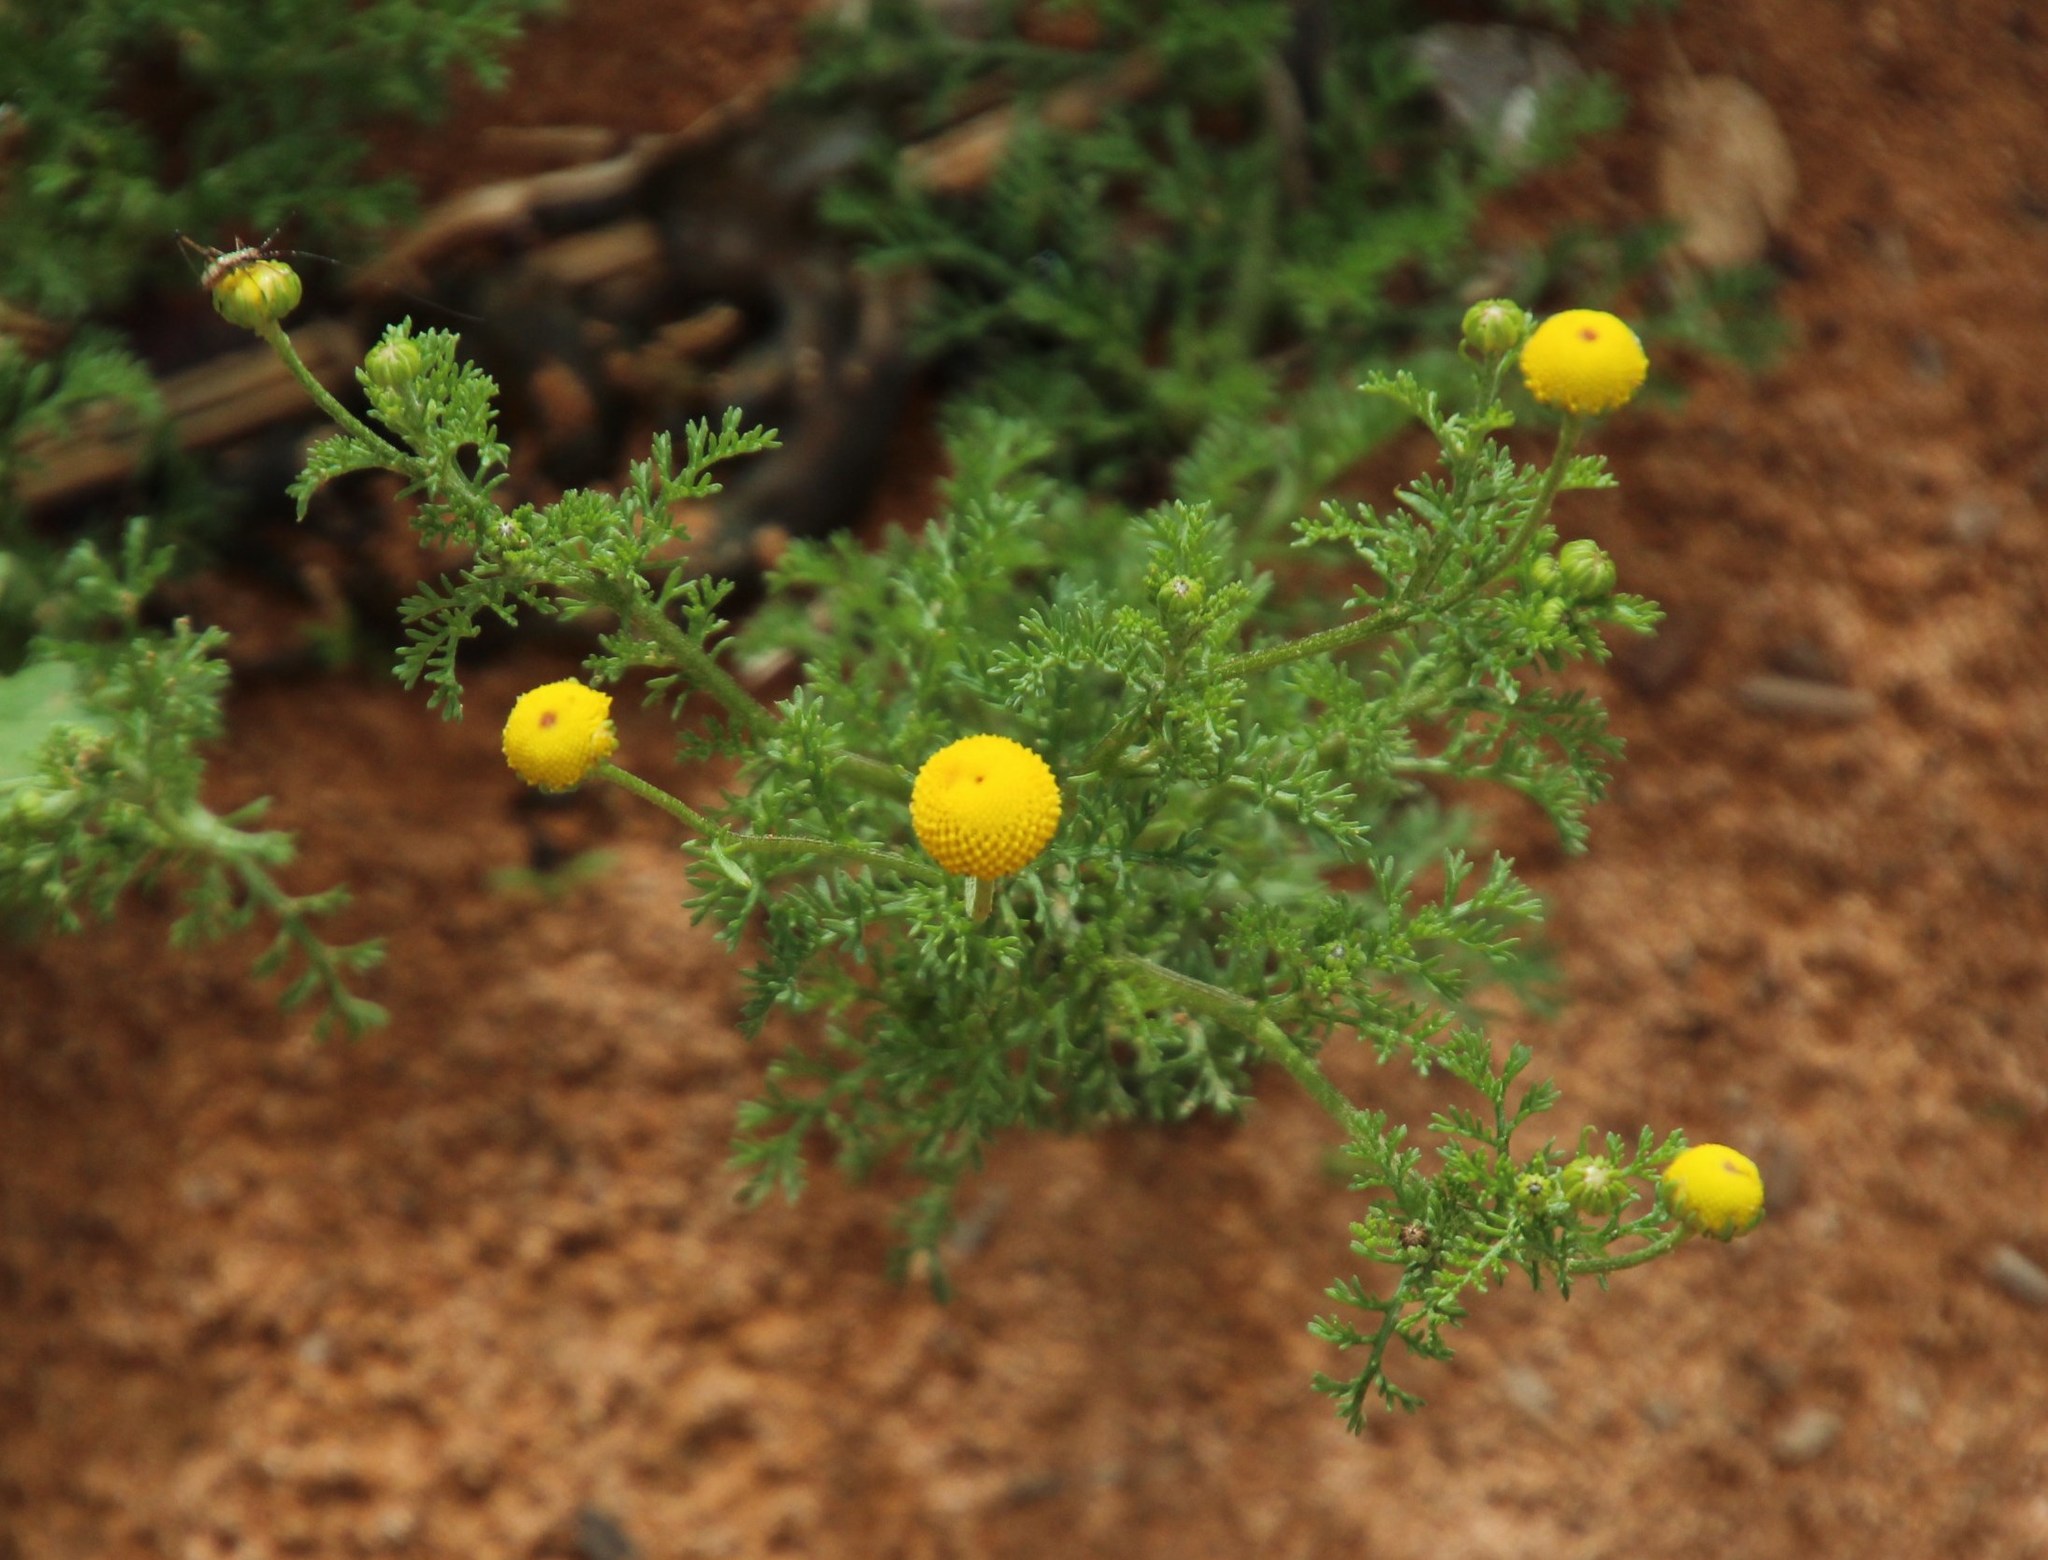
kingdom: Plantae
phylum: Tracheophyta
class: Magnoliopsida
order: Asterales
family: Asteraceae
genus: Oncosiphon
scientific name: Oncosiphon pilulifer
